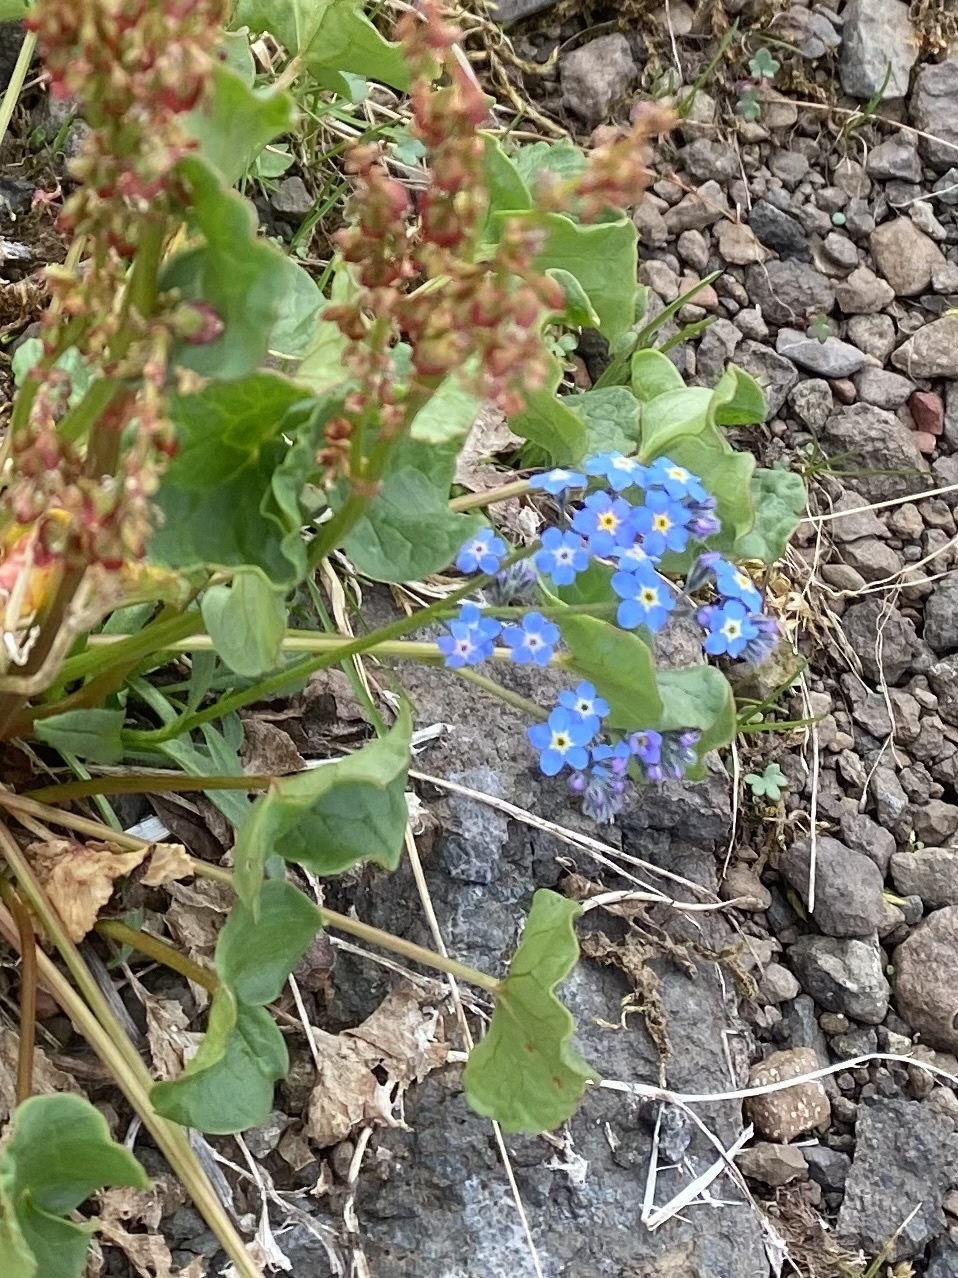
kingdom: Plantae
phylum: Tracheophyta
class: Magnoliopsida
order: Boraginales
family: Boraginaceae
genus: Myosotis
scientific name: Myosotis asiatica
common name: Asian forget-me-not
